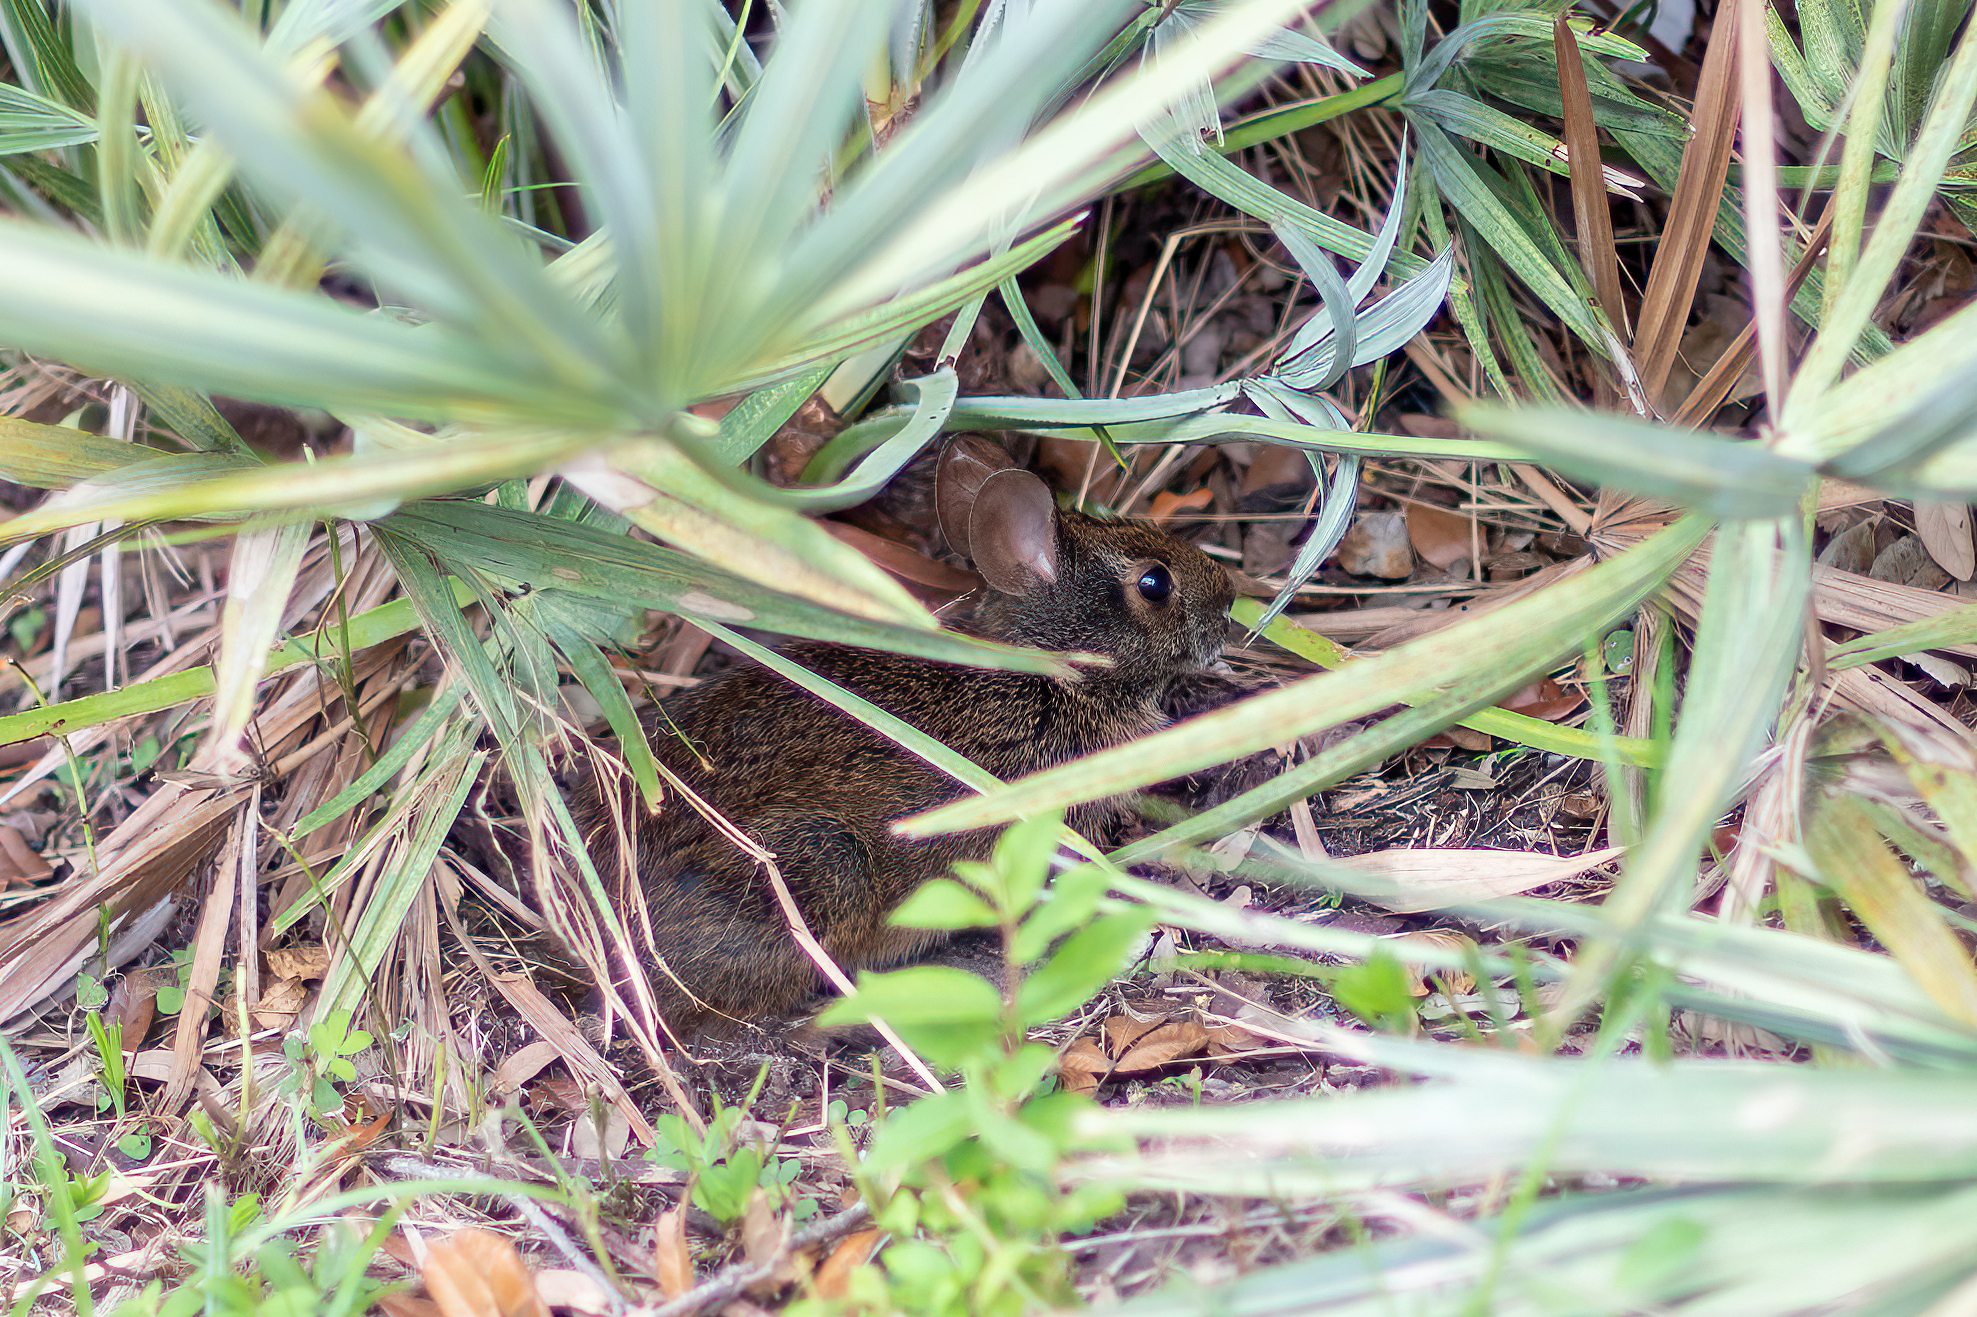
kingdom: Animalia
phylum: Chordata
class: Mammalia
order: Lagomorpha
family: Leporidae
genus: Sylvilagus
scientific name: Sylvilagus palustris
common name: Marsh rabbit
